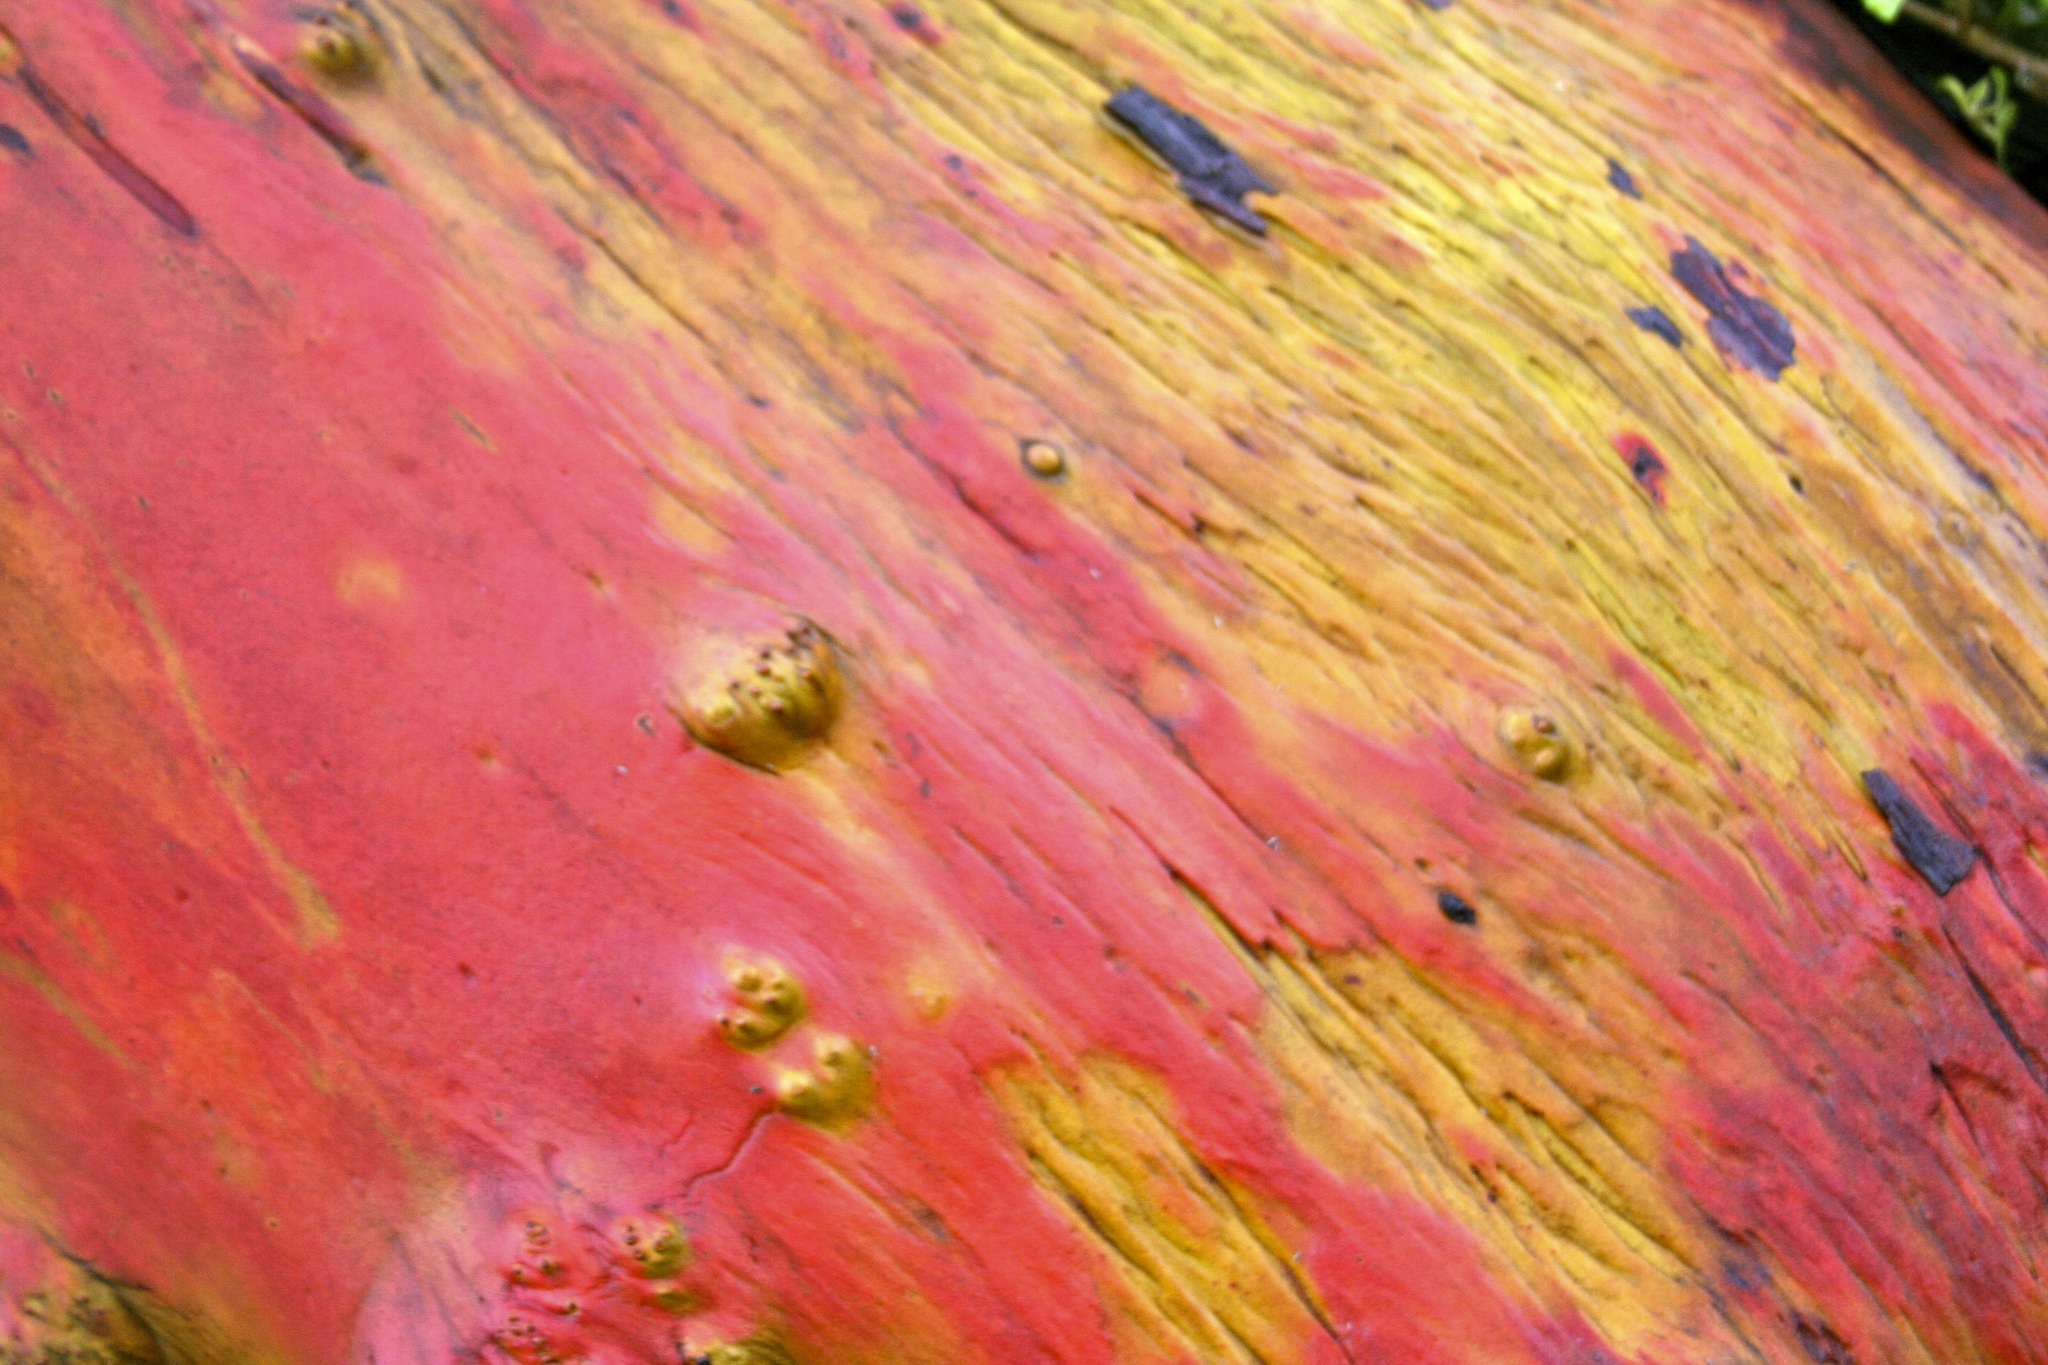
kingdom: Plantae
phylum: Tracheophyta
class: Magnoliopsida
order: Ericales
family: Ericaceae
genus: Arbutus
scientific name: Arbutus menziesii
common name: Pacific madrone
